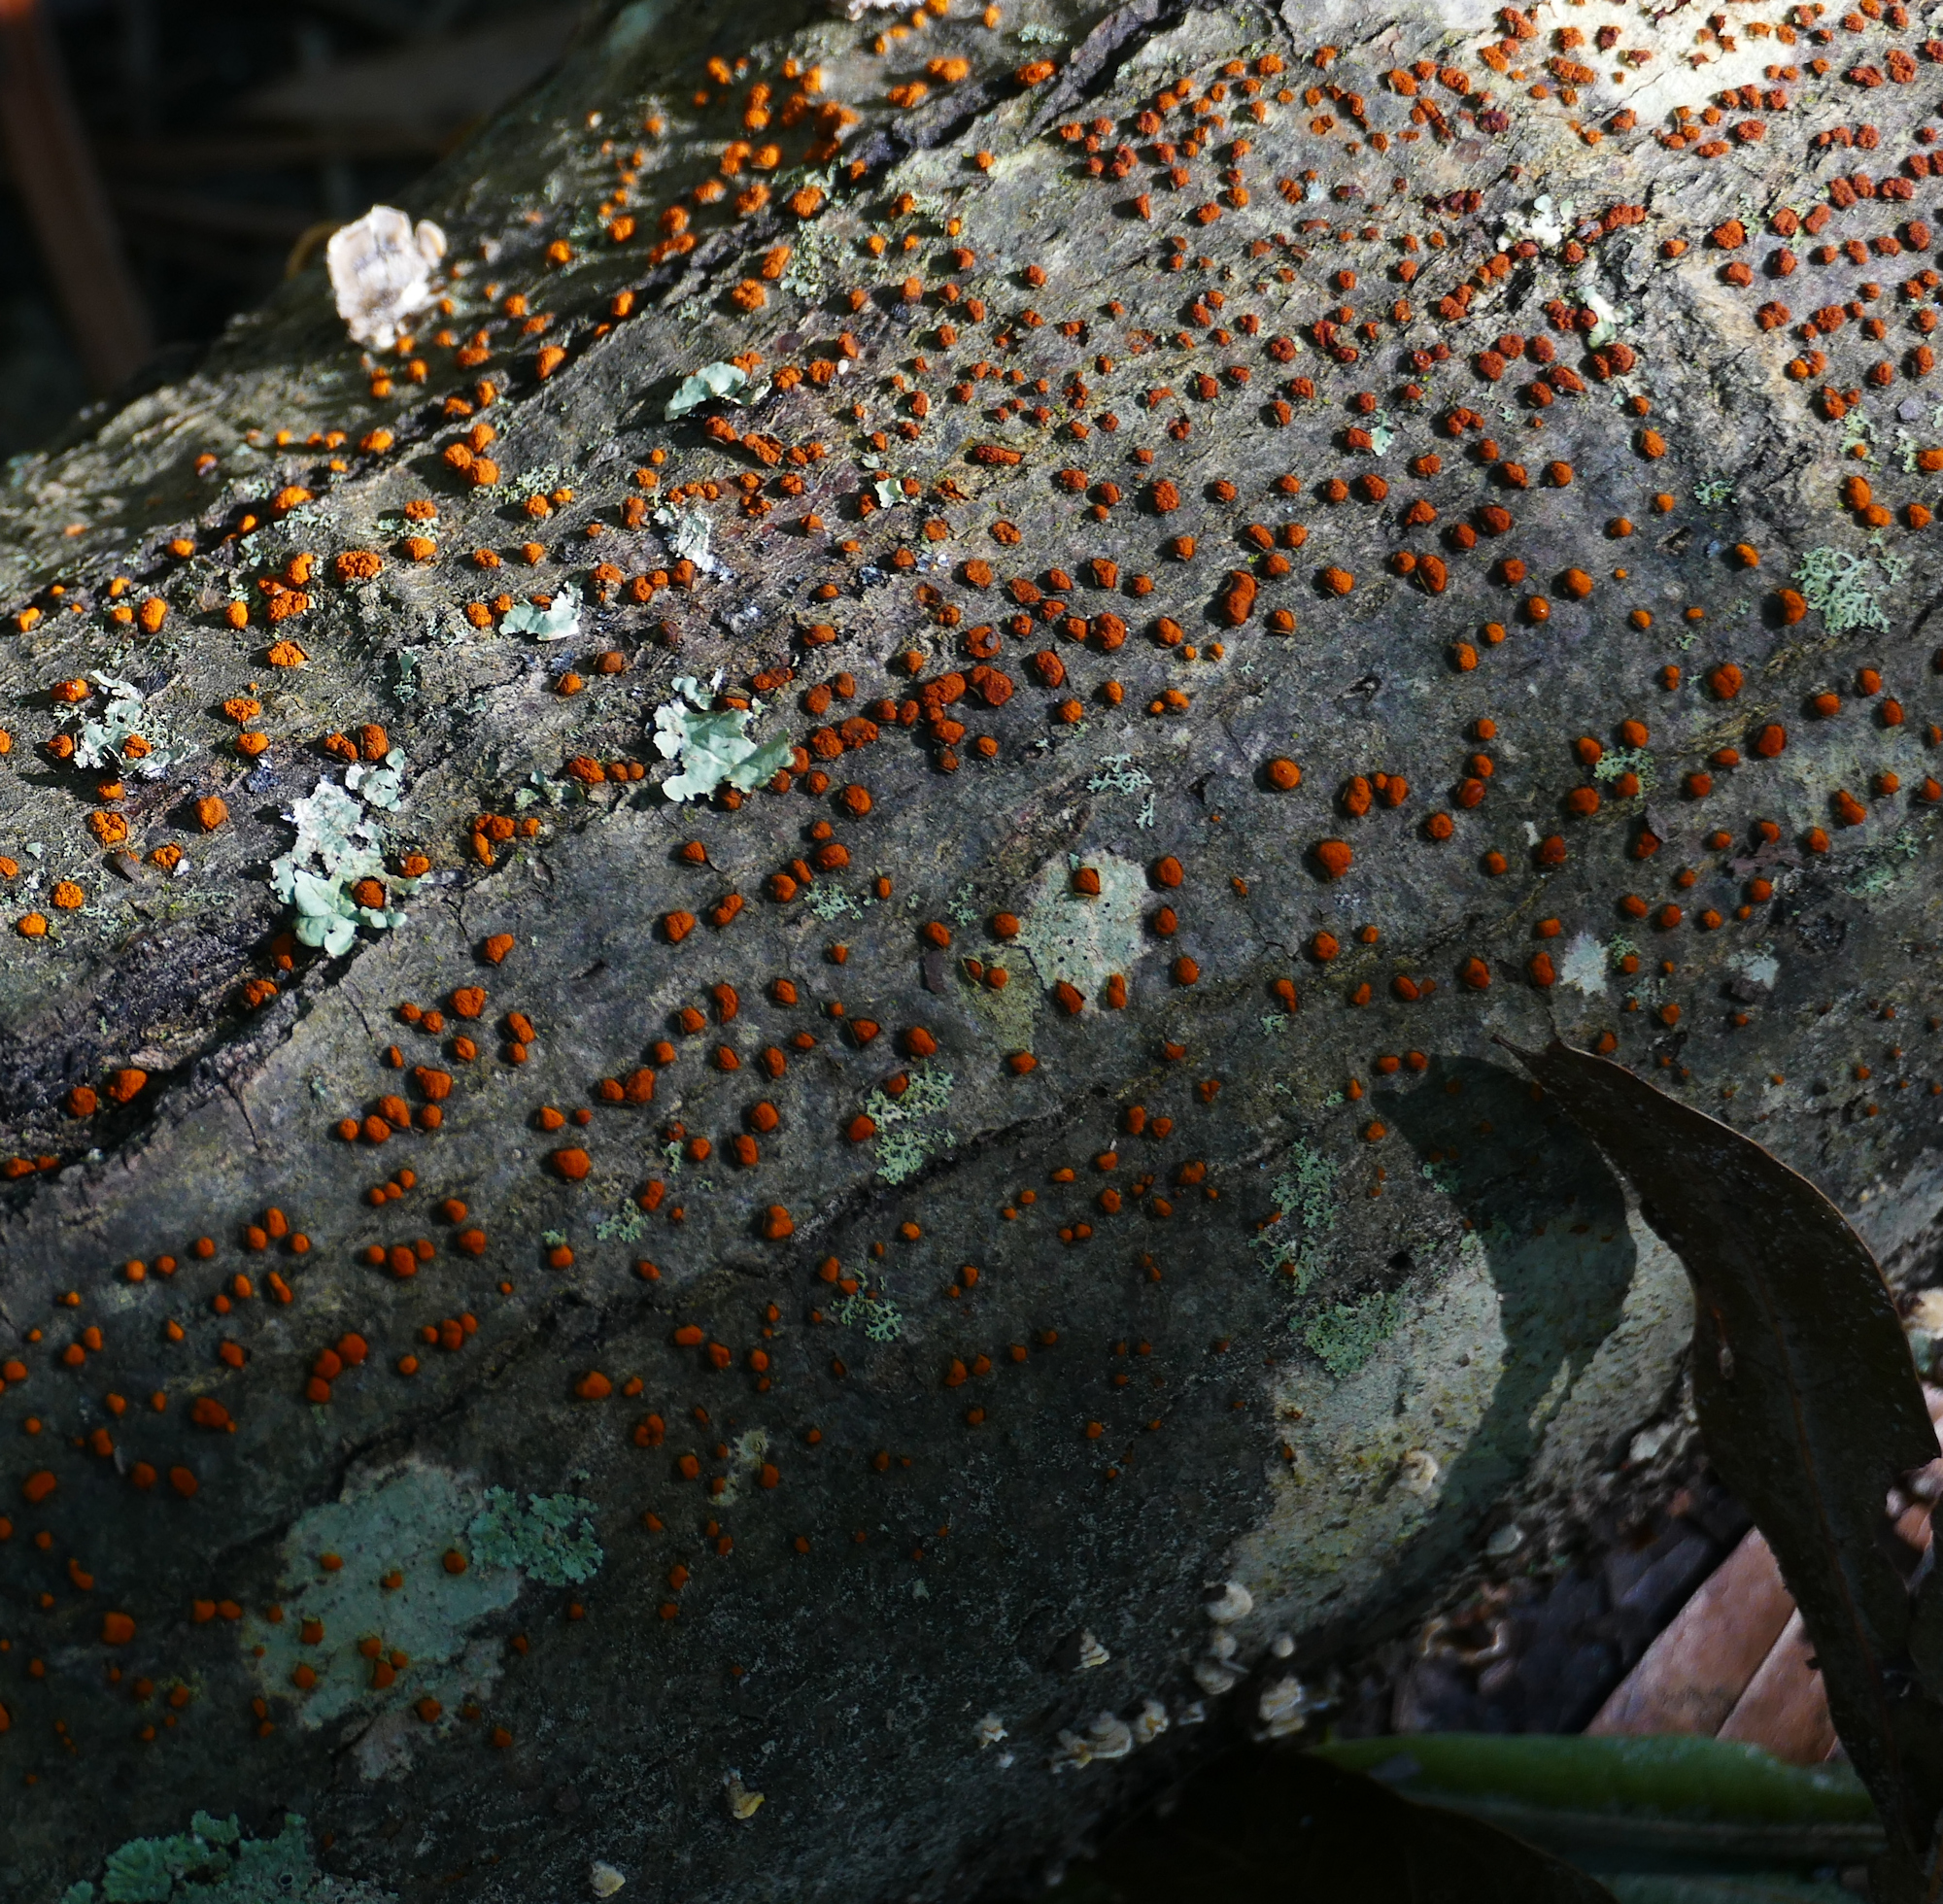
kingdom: Fungi
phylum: Ascomycota
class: Sordariomycetes
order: Diaporthales
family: Cryphonectriaceae
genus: Amphilogia
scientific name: Amphilogia gyrosa
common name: Orange hobnail canker
